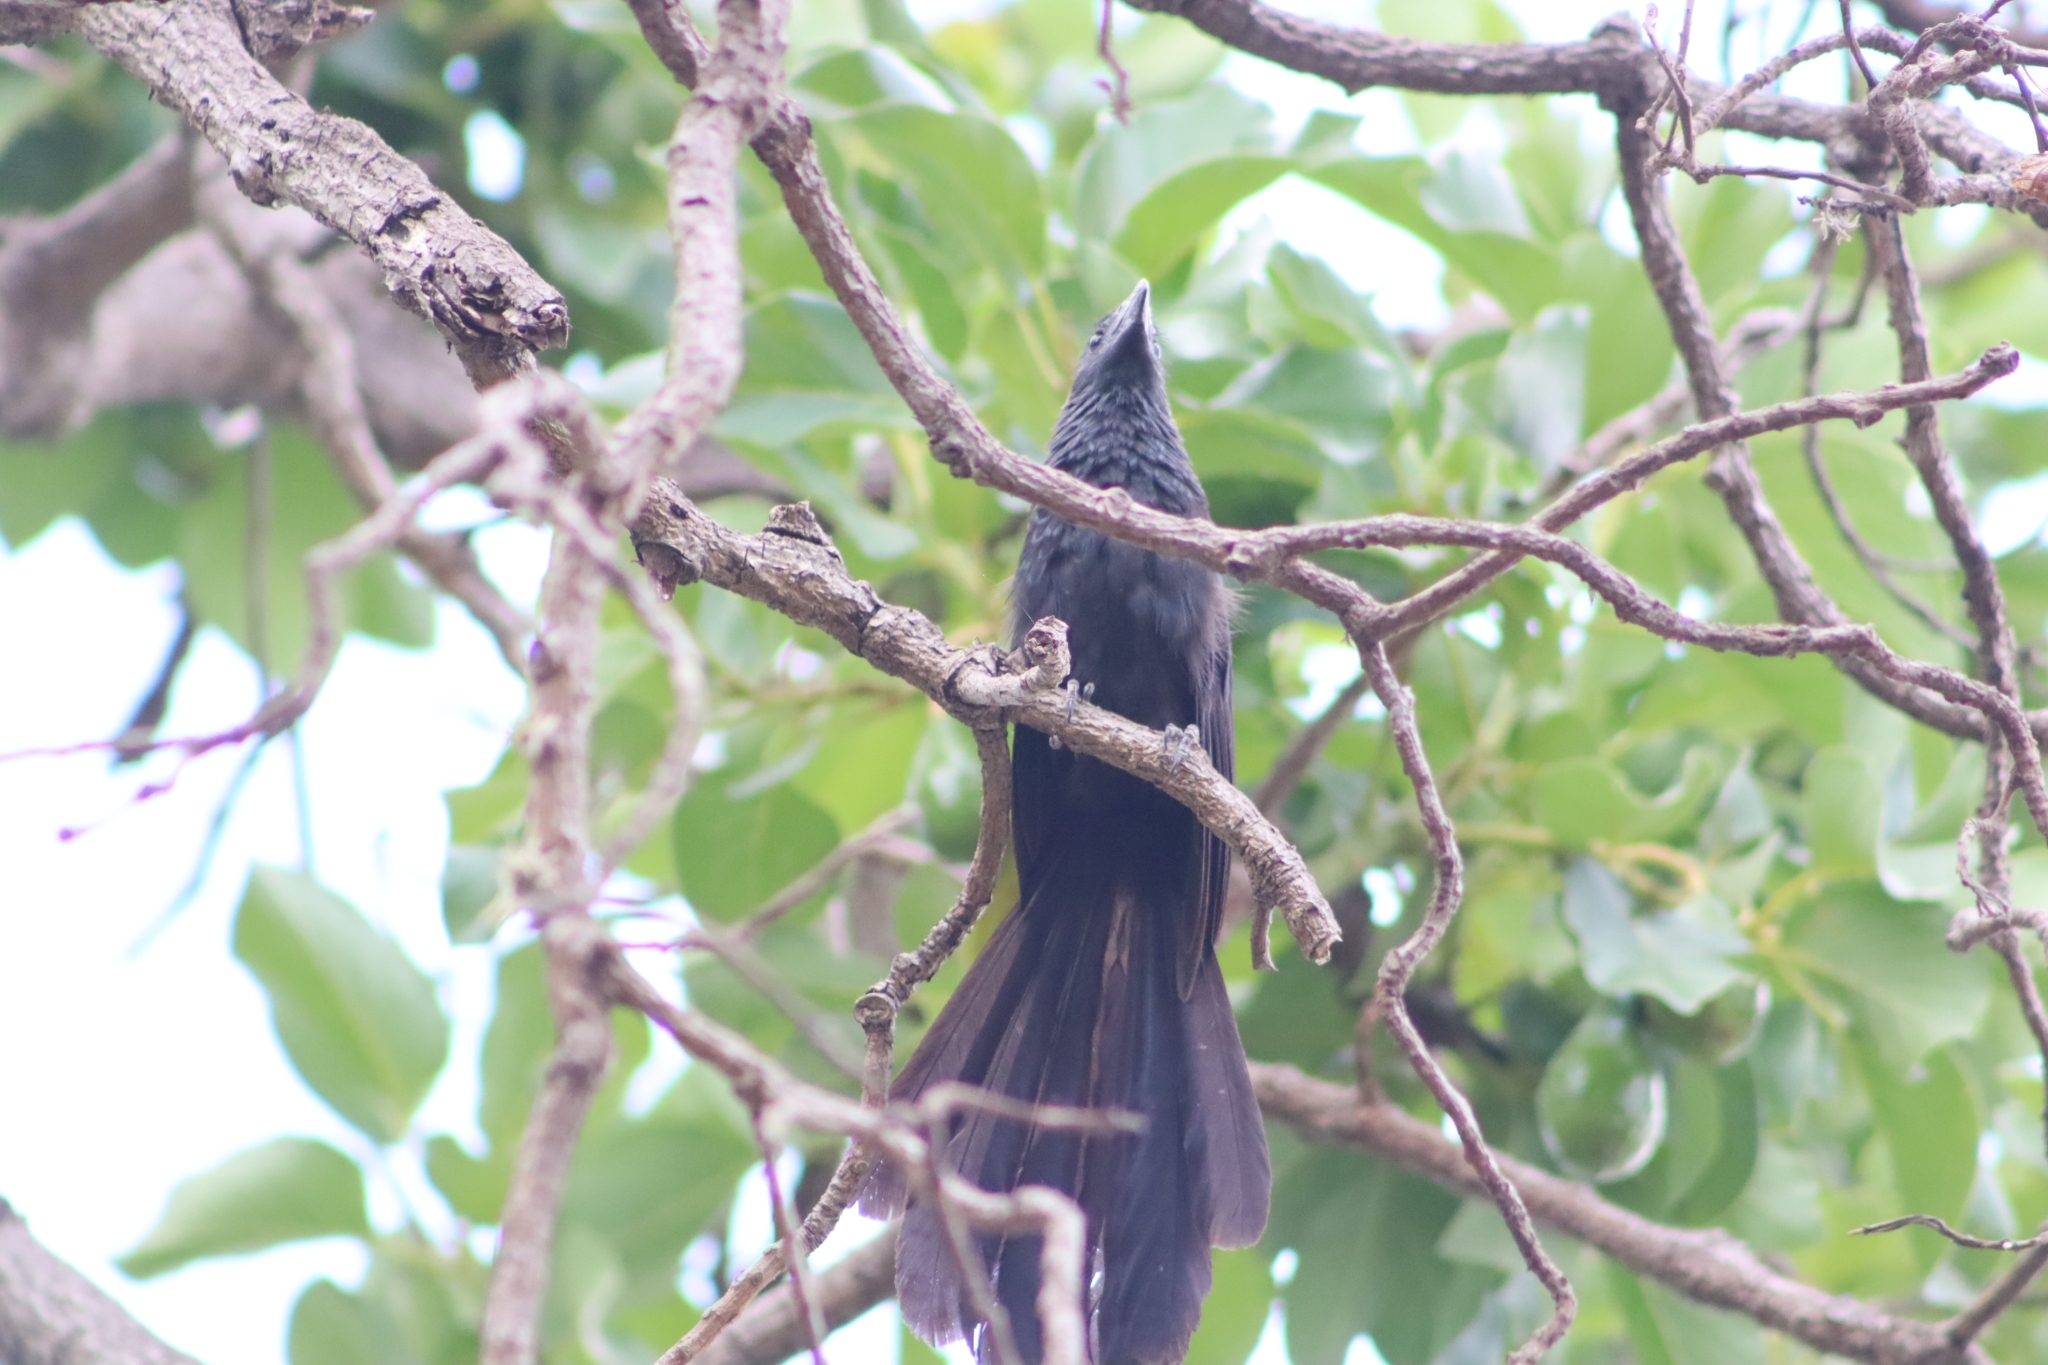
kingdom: Animalia
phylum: Chordata
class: Aves
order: Cuculiformes
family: Cuculidae
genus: Crotophaga
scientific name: Crotophaga sulcirostris
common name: Groove-billed ani
